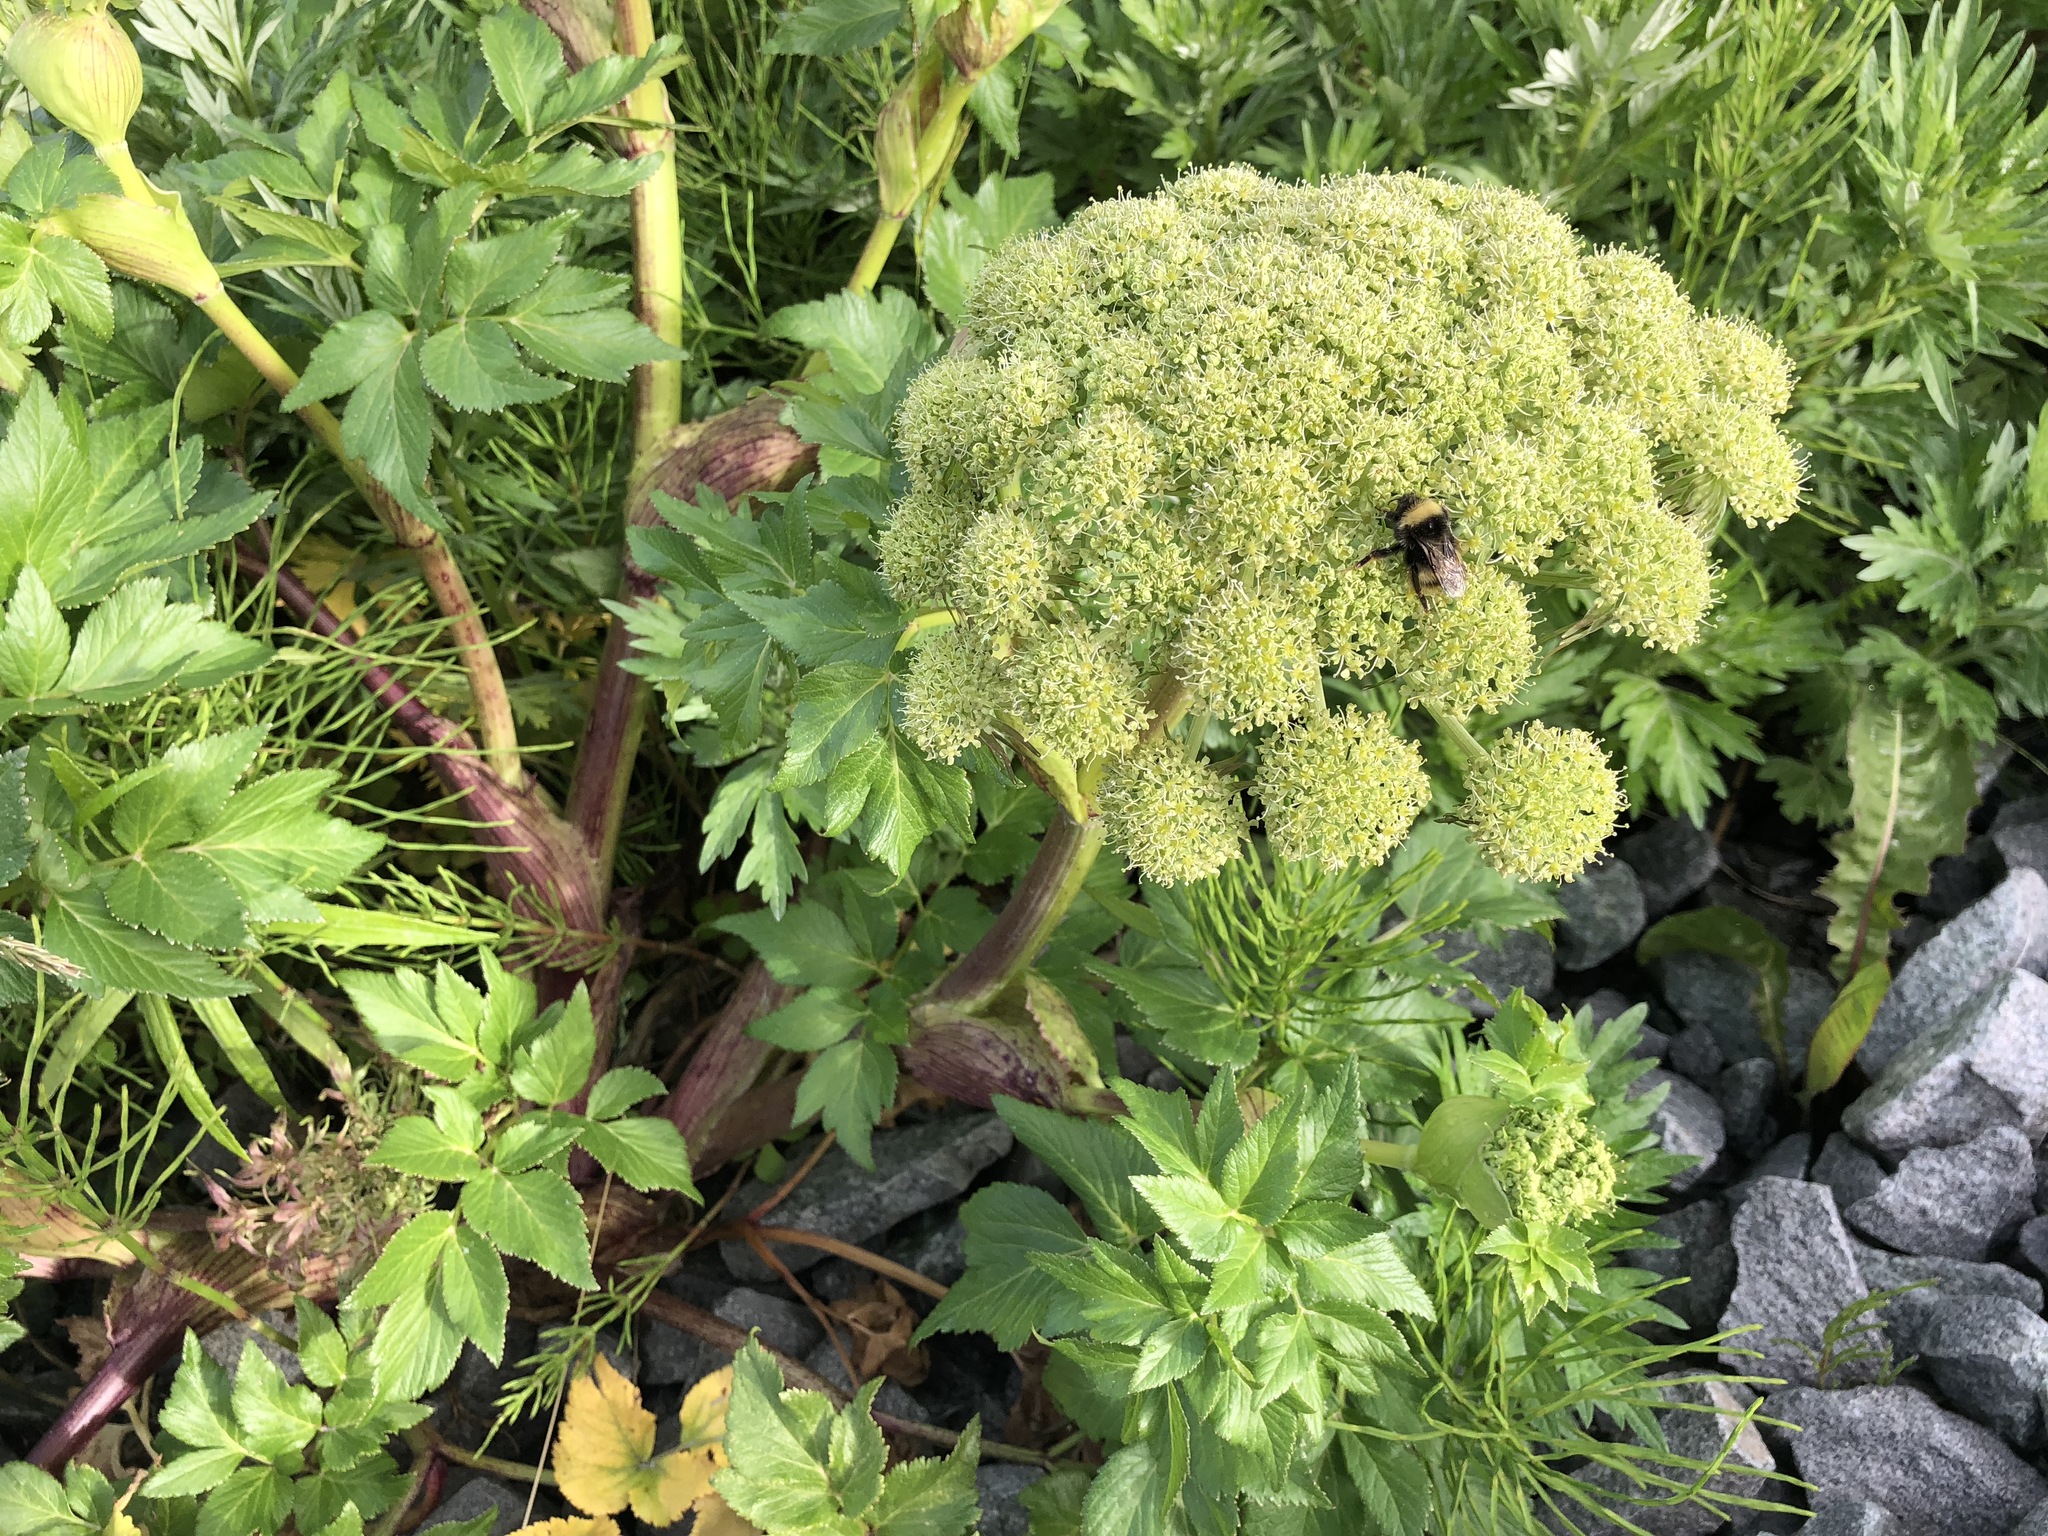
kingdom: Plantae
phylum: Tracheophyta
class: Magnoliopsida
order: Apiales
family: Apiaceae
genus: Angelica
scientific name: Angelica lucida
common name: Seabeach angelica
